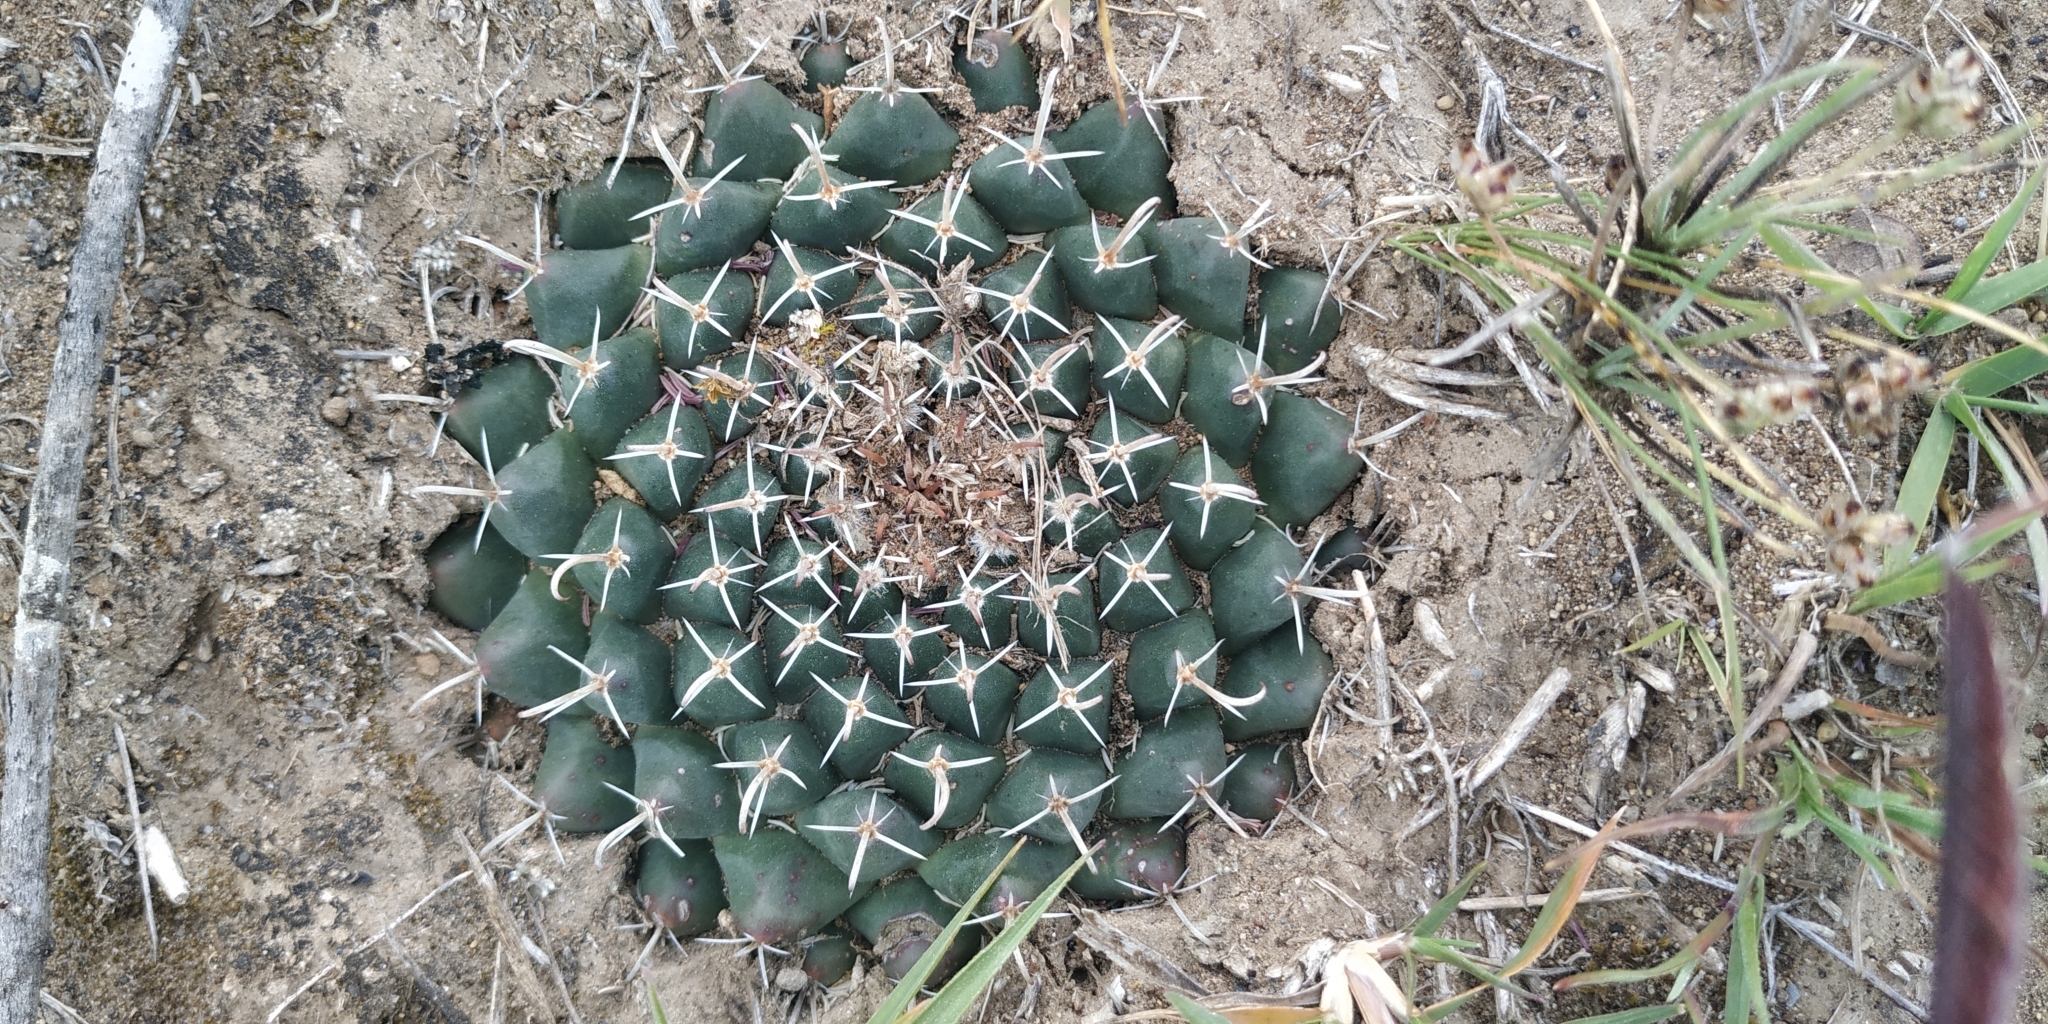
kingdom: Plantae
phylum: Tracheophyta
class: Magnoliopsida
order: Caryophyllales
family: Cactaceae
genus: Mammillaria
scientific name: Mammillaria uncinata
